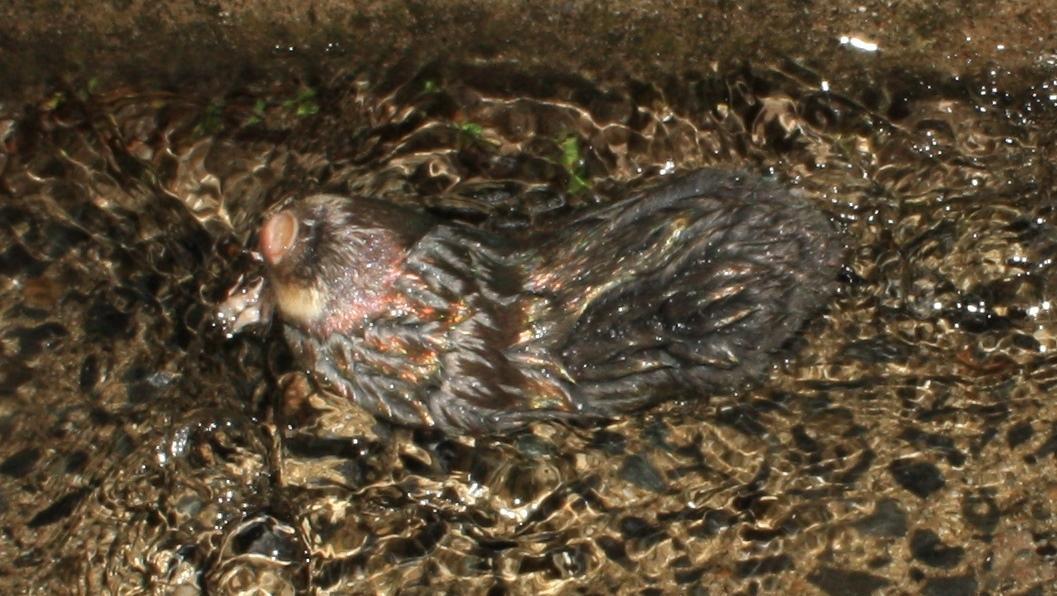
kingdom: Animalia
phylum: Chordata
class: Mammalia
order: Afrosoricida
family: Chrysochloridae
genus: Chrysochloris
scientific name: Chrysochloris asiatica
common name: Cape golden mole
